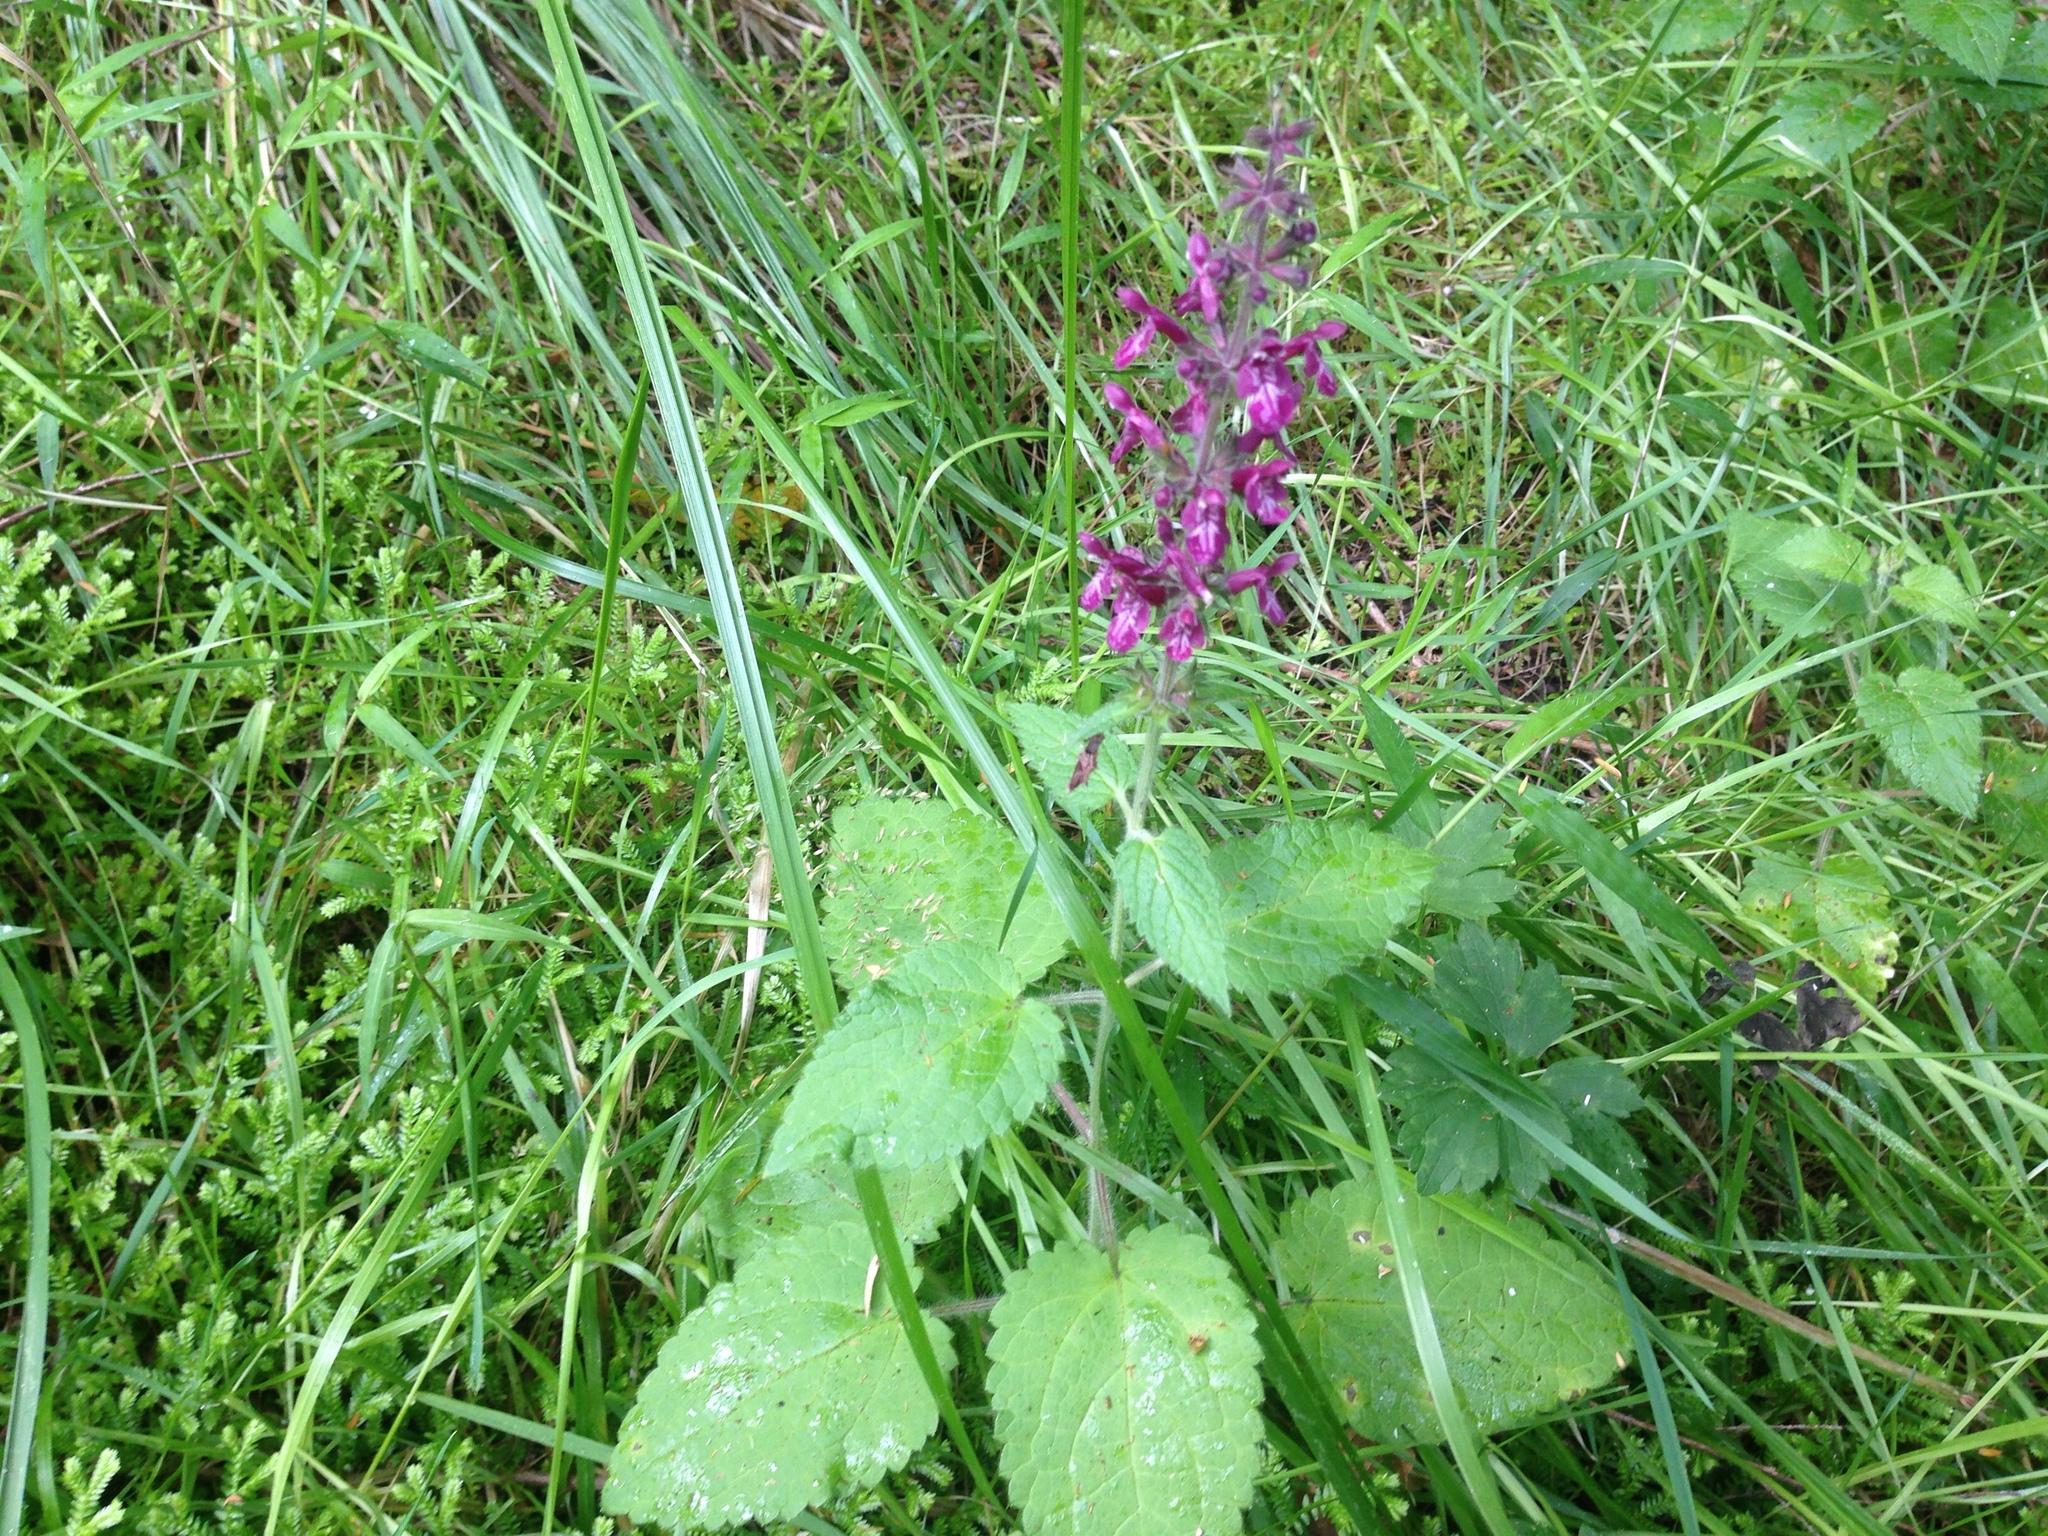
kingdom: Plantae
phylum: Tracheophyta
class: Magnoliopsida
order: Lamiales
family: Lamiaceae
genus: Stachys
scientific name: Stachys sylvatica
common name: Hedge woundwort
